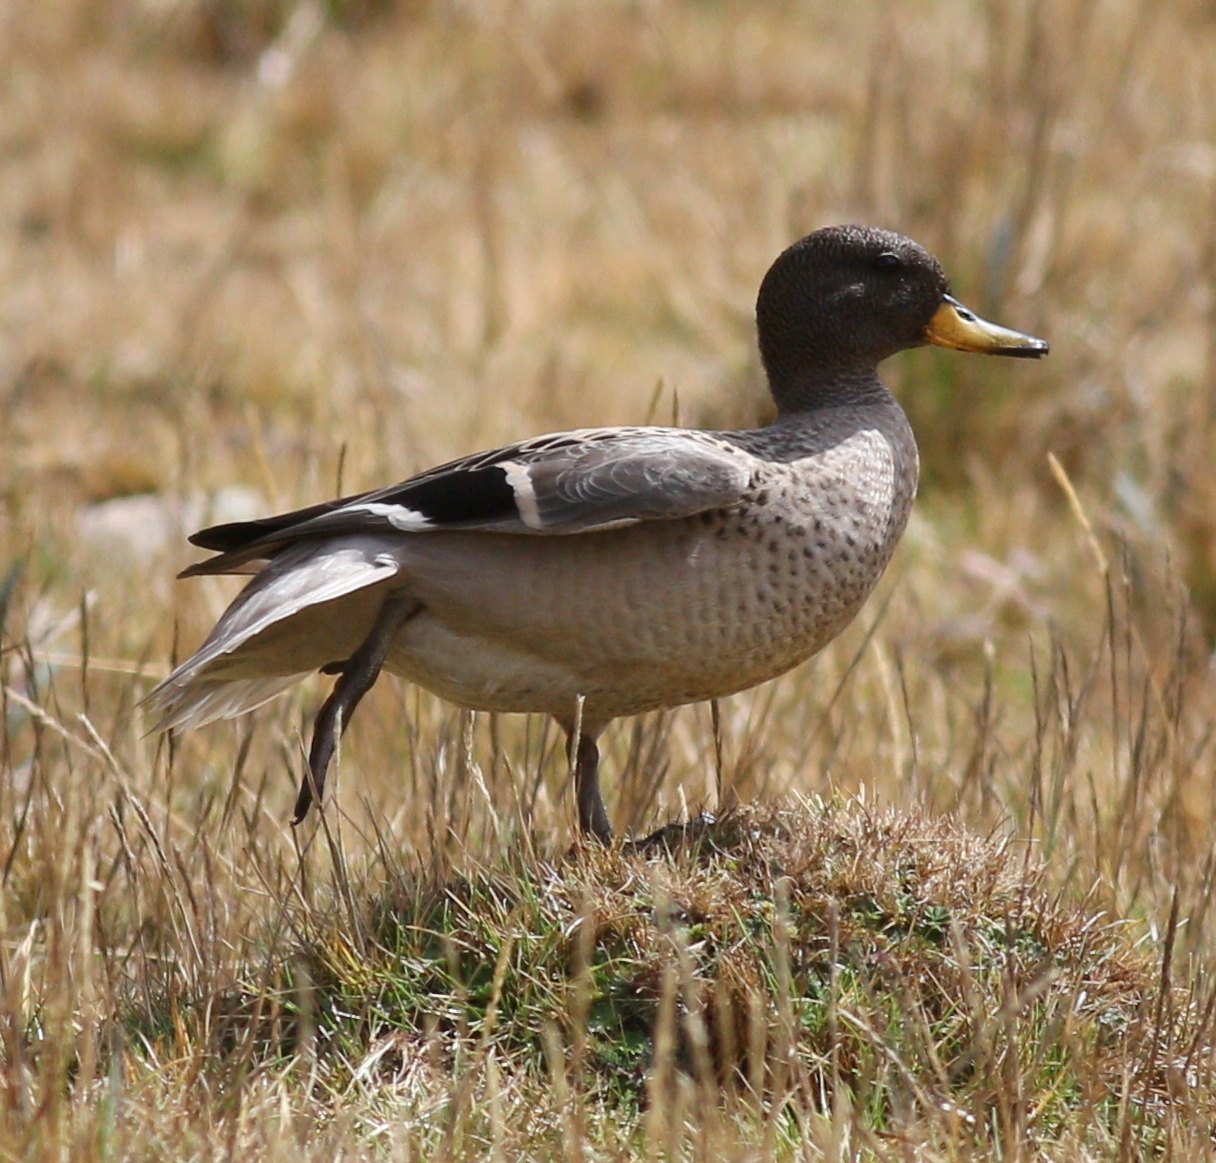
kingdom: Animalia
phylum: Chordata
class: Aves
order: Anseriformes
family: Anatidae
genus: Anas
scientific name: Anas flavirostris
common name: Yellow-billed teal
